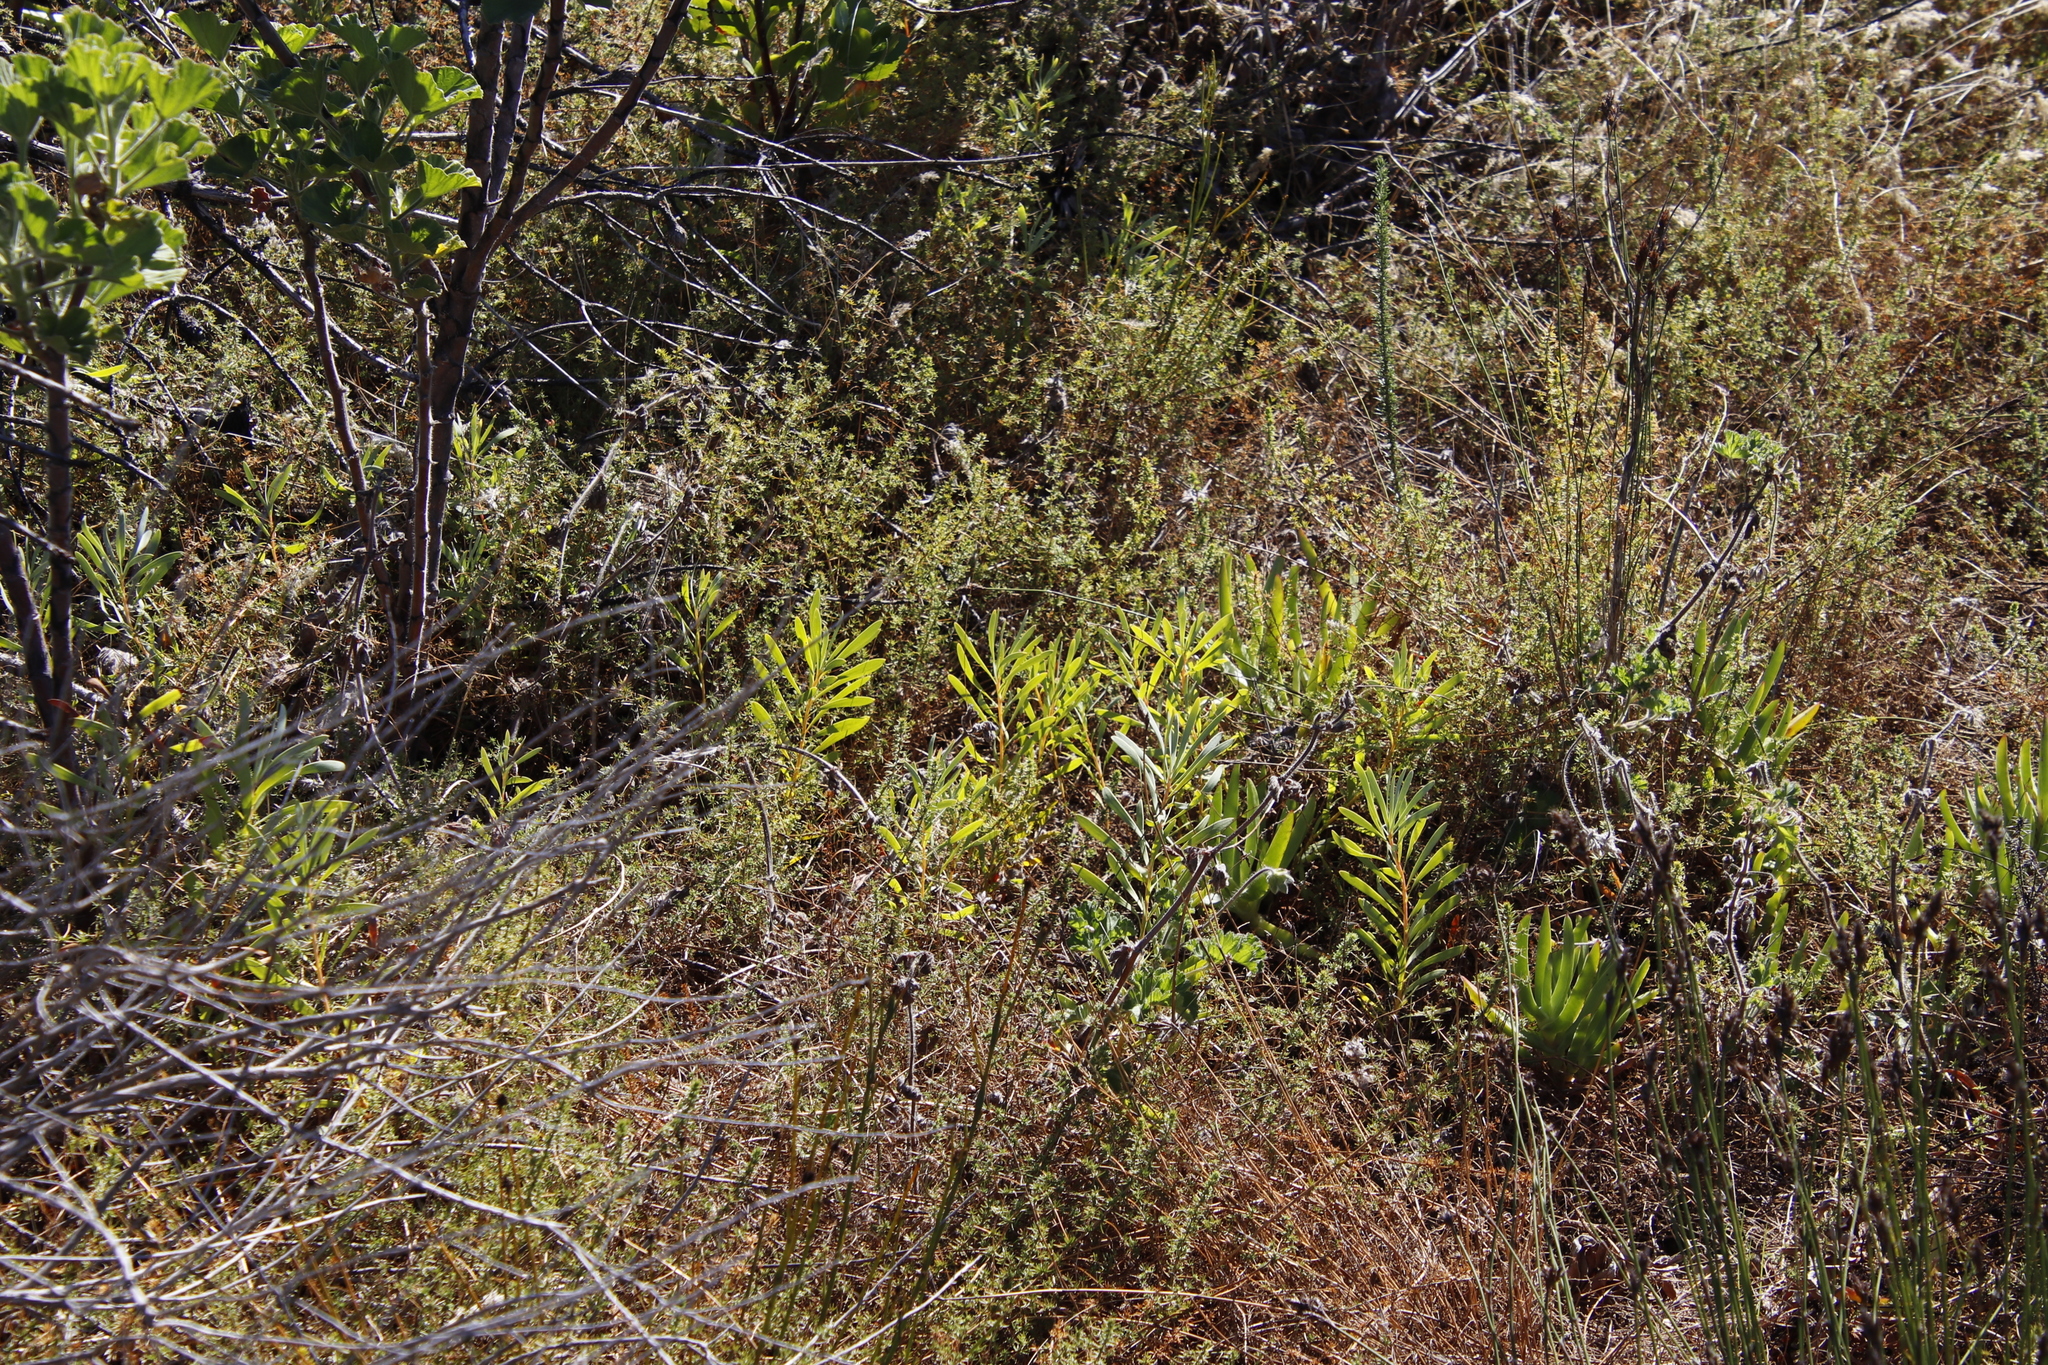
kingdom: Plantae
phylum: Tracheophyta
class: Magnoliopsida
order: Proteales
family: Proteaceae
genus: Protea
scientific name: Protea repens
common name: Sugarbush
